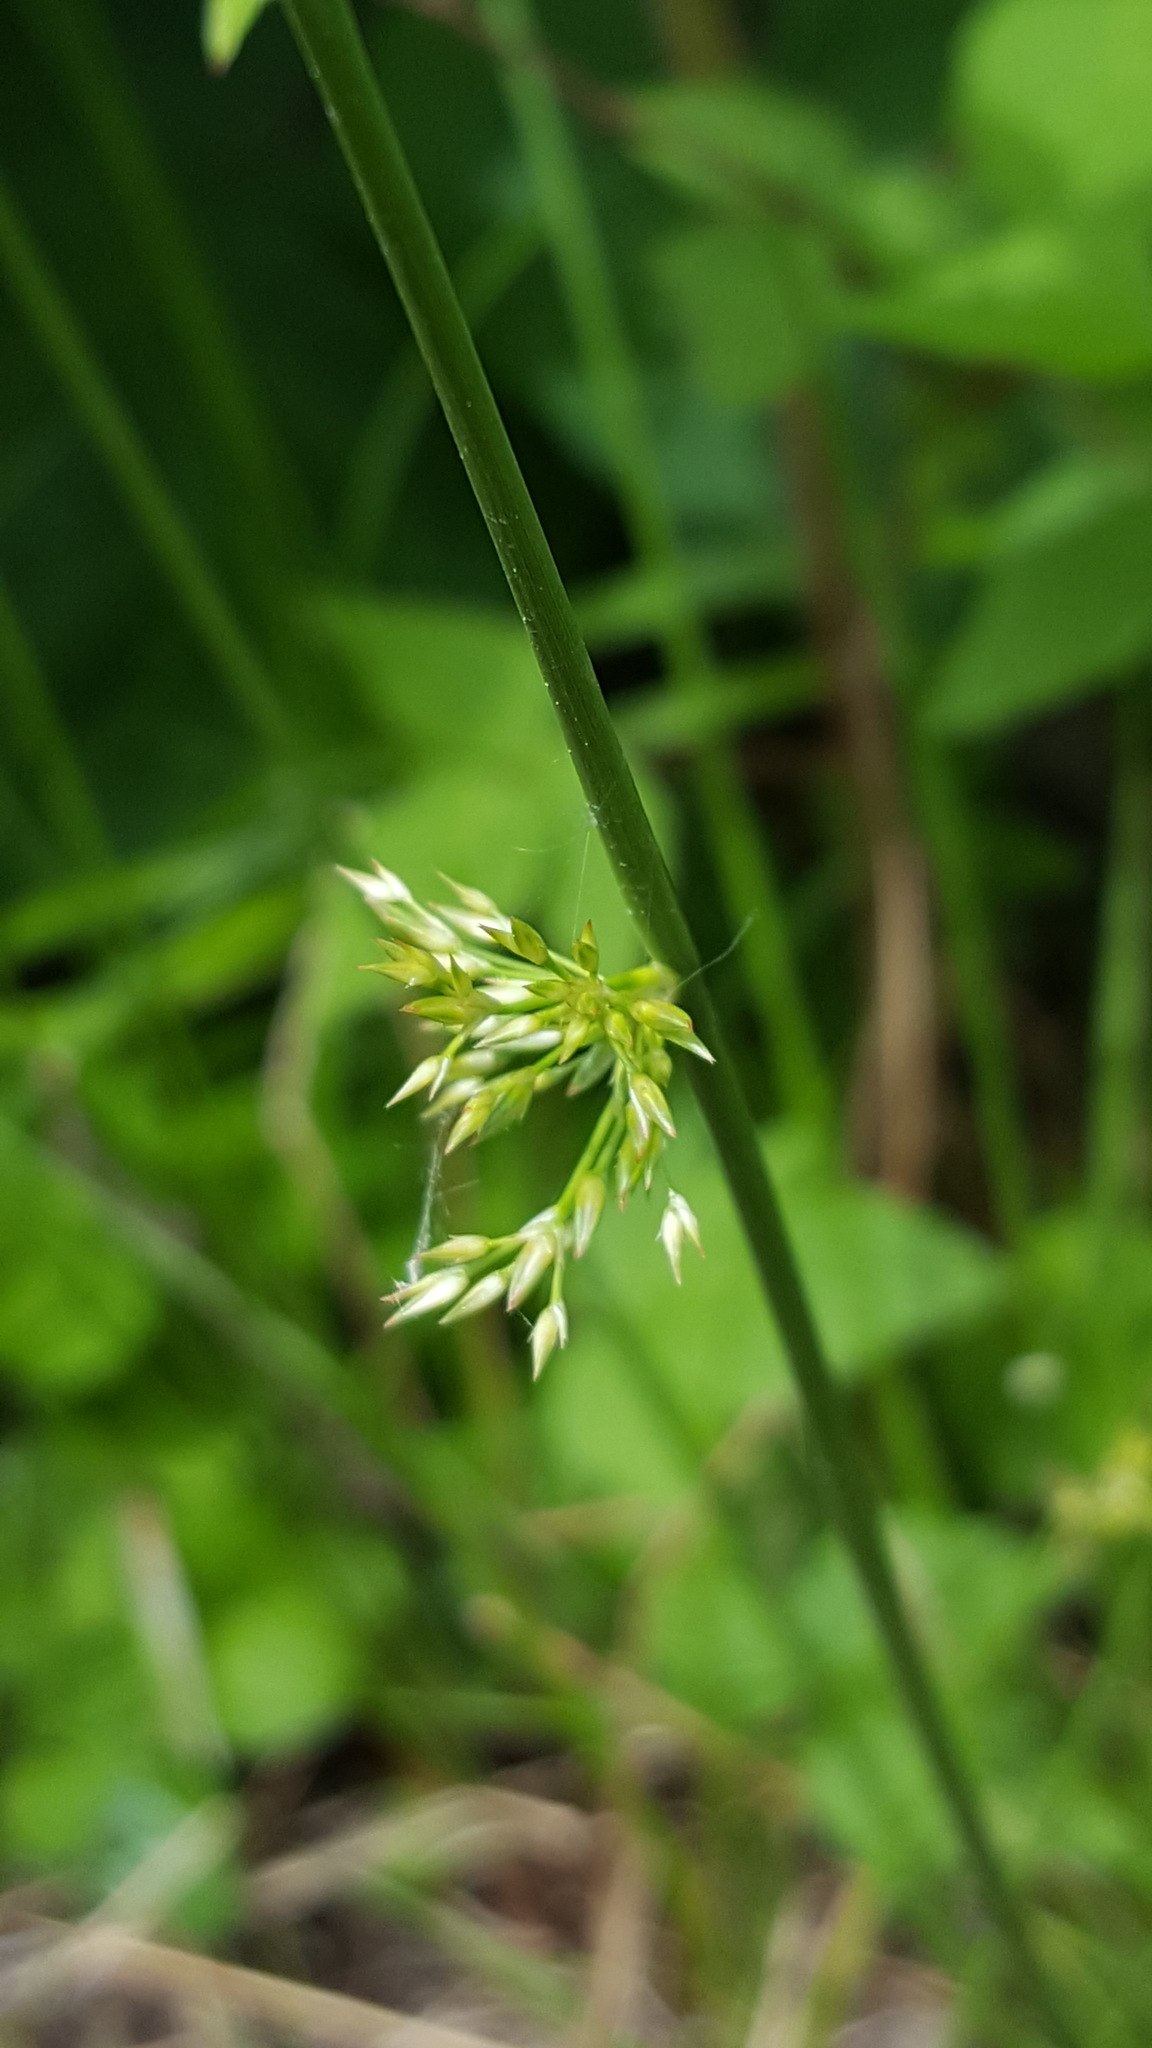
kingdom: Plantae
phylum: Tracheophyta
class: Liliopsida
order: Poales
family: Juncaceae
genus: Juncus
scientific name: Juncus effusus
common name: Soft rush
